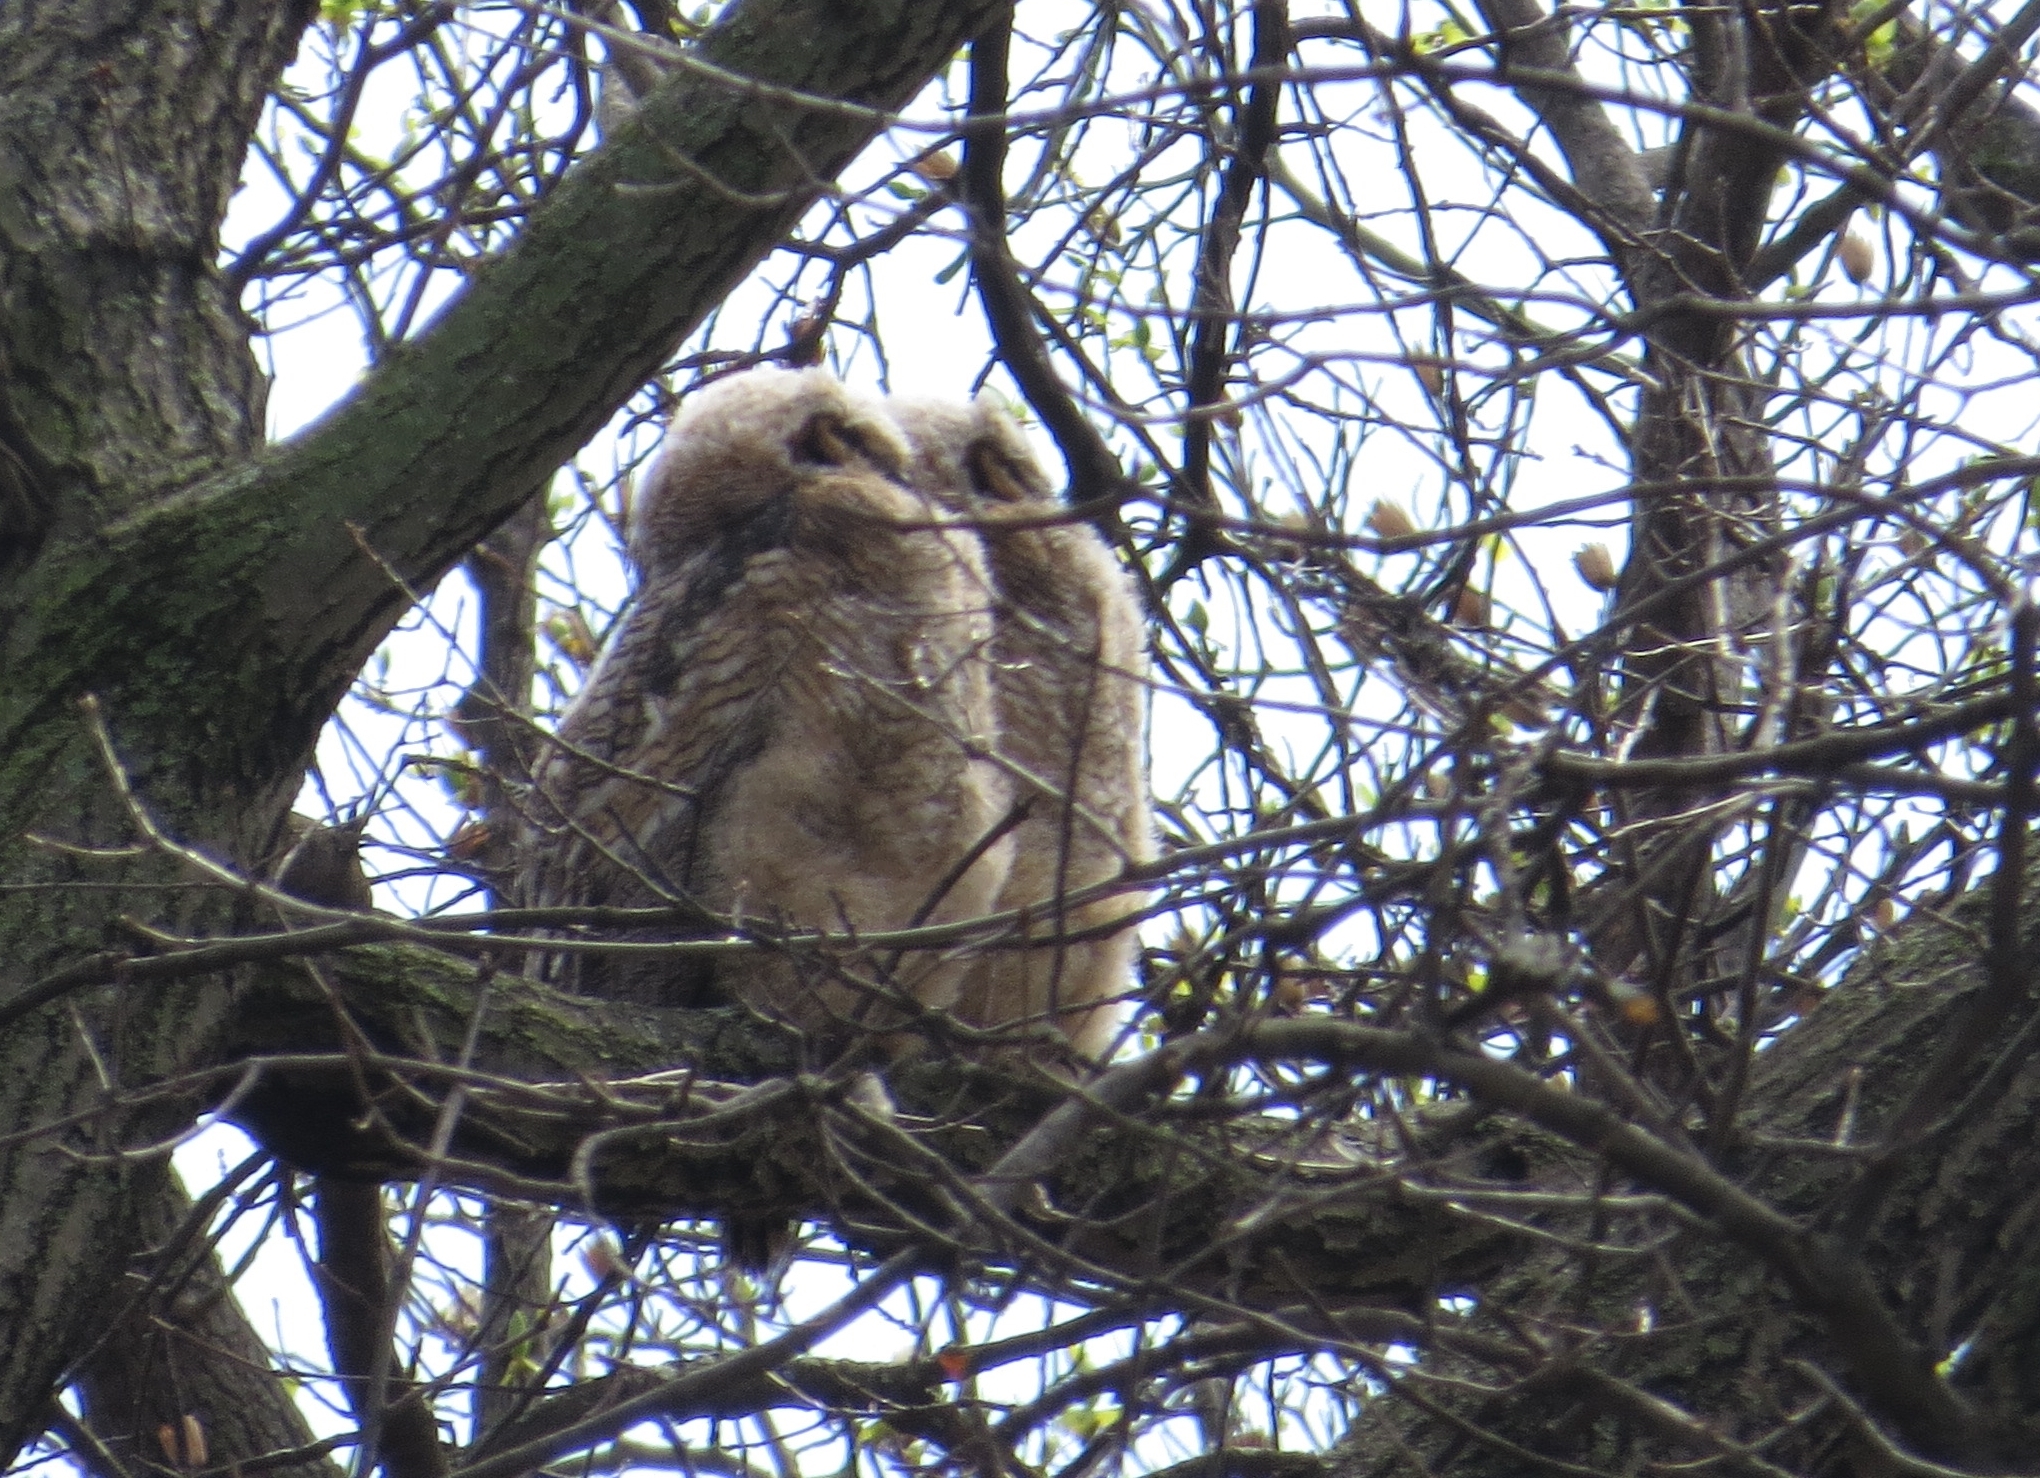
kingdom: Animalia
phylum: Chordata
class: Aves
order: Strigiformes
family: Strigidae
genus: Bubo
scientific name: Bubo virginianus
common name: Great horned owl
